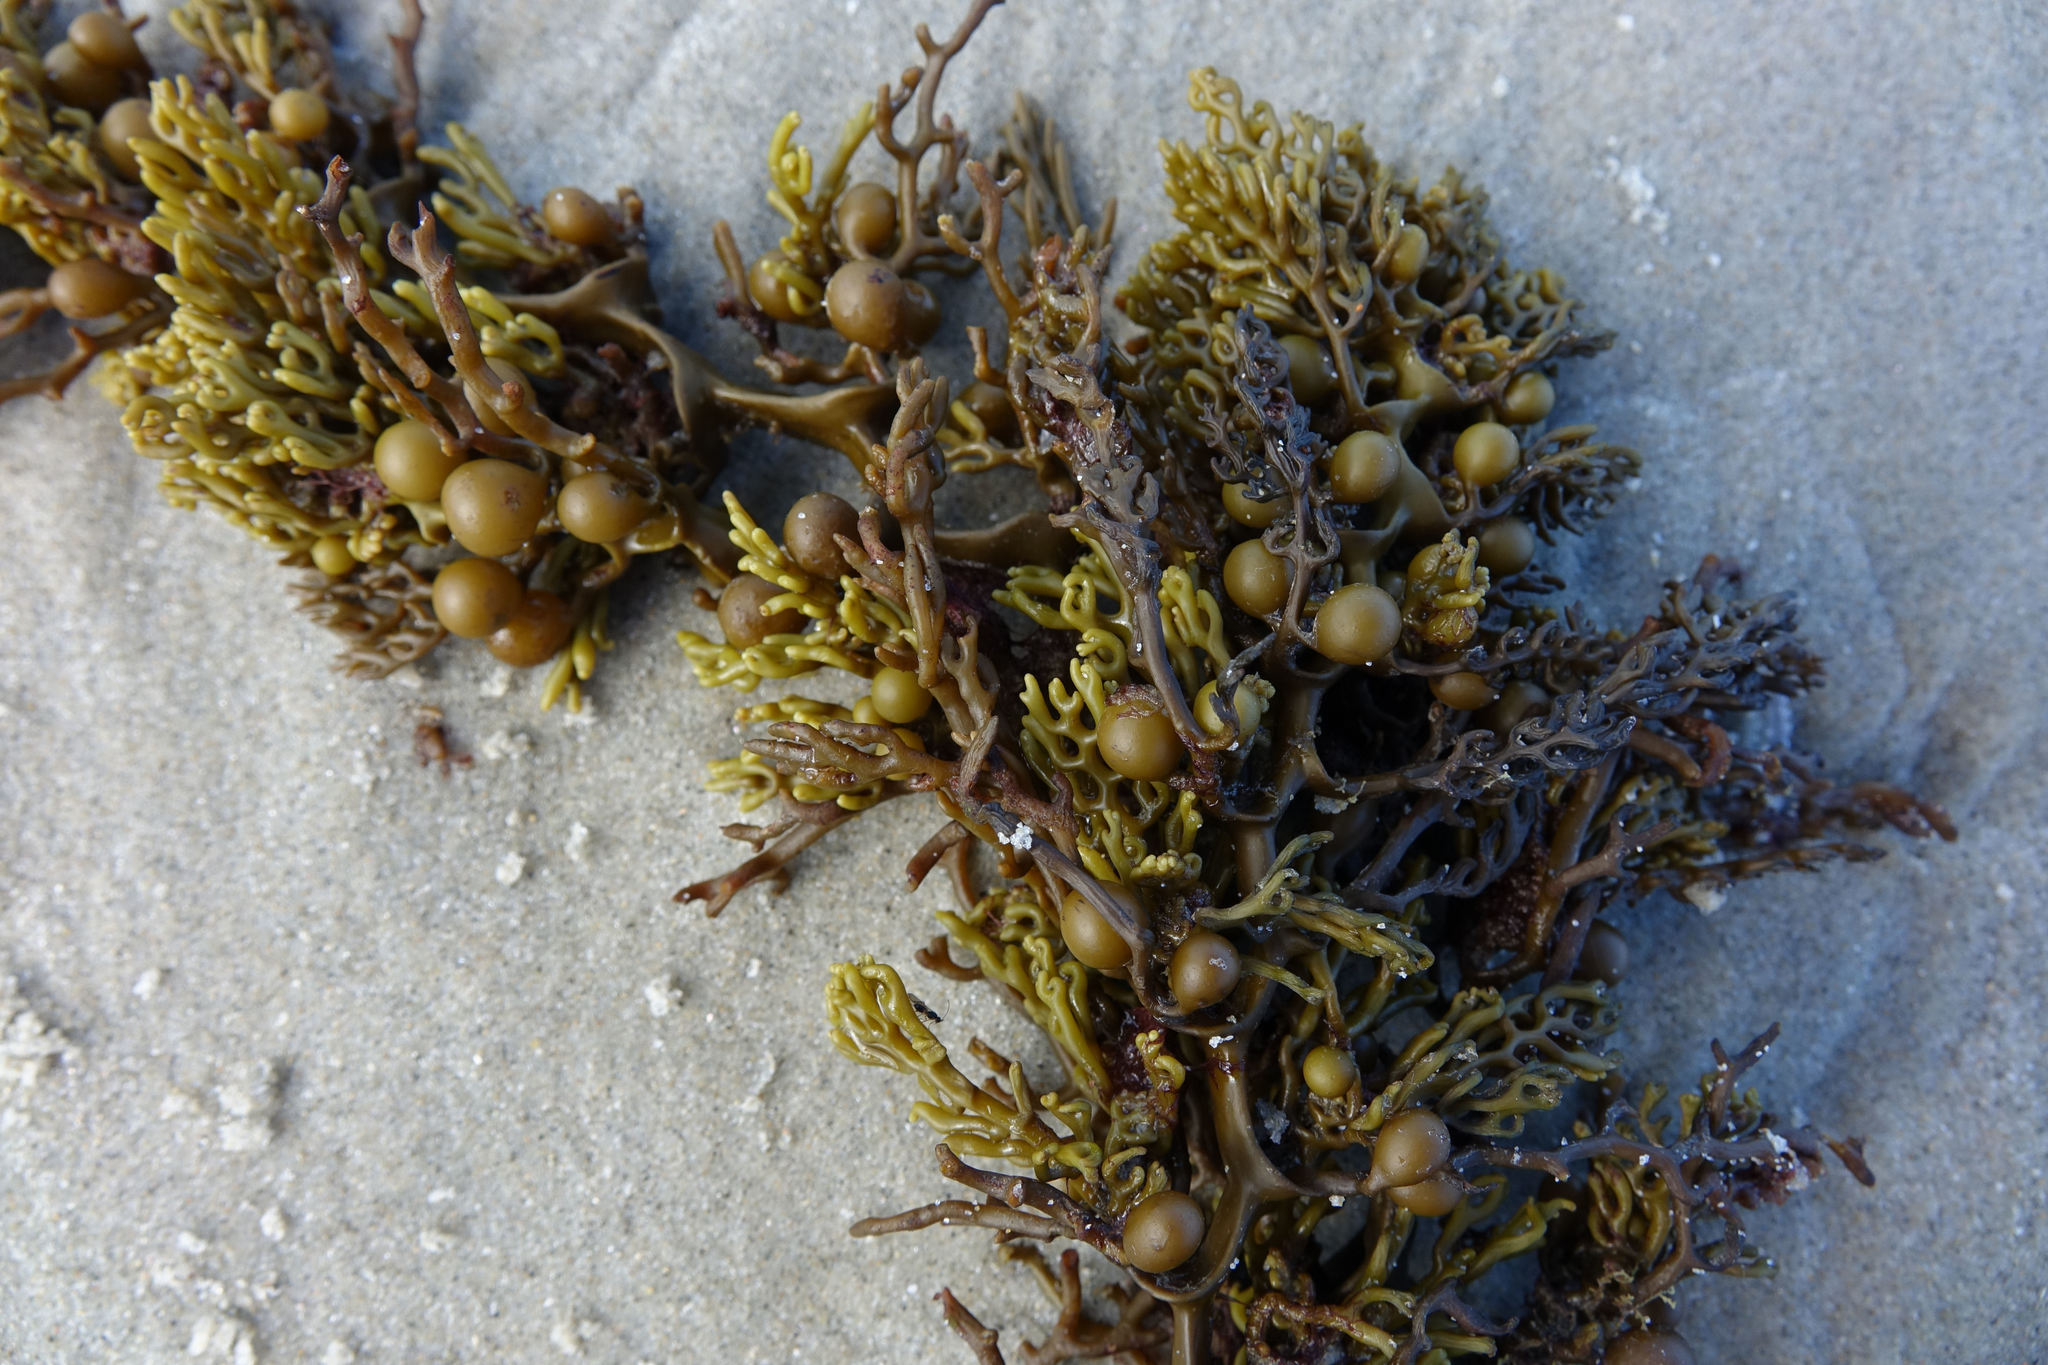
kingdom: Chromista
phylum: Ochrophyta
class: Phaeophyceae
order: Fucales
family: Sargassaceae
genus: Cystophora
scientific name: Cystophora scalaris
